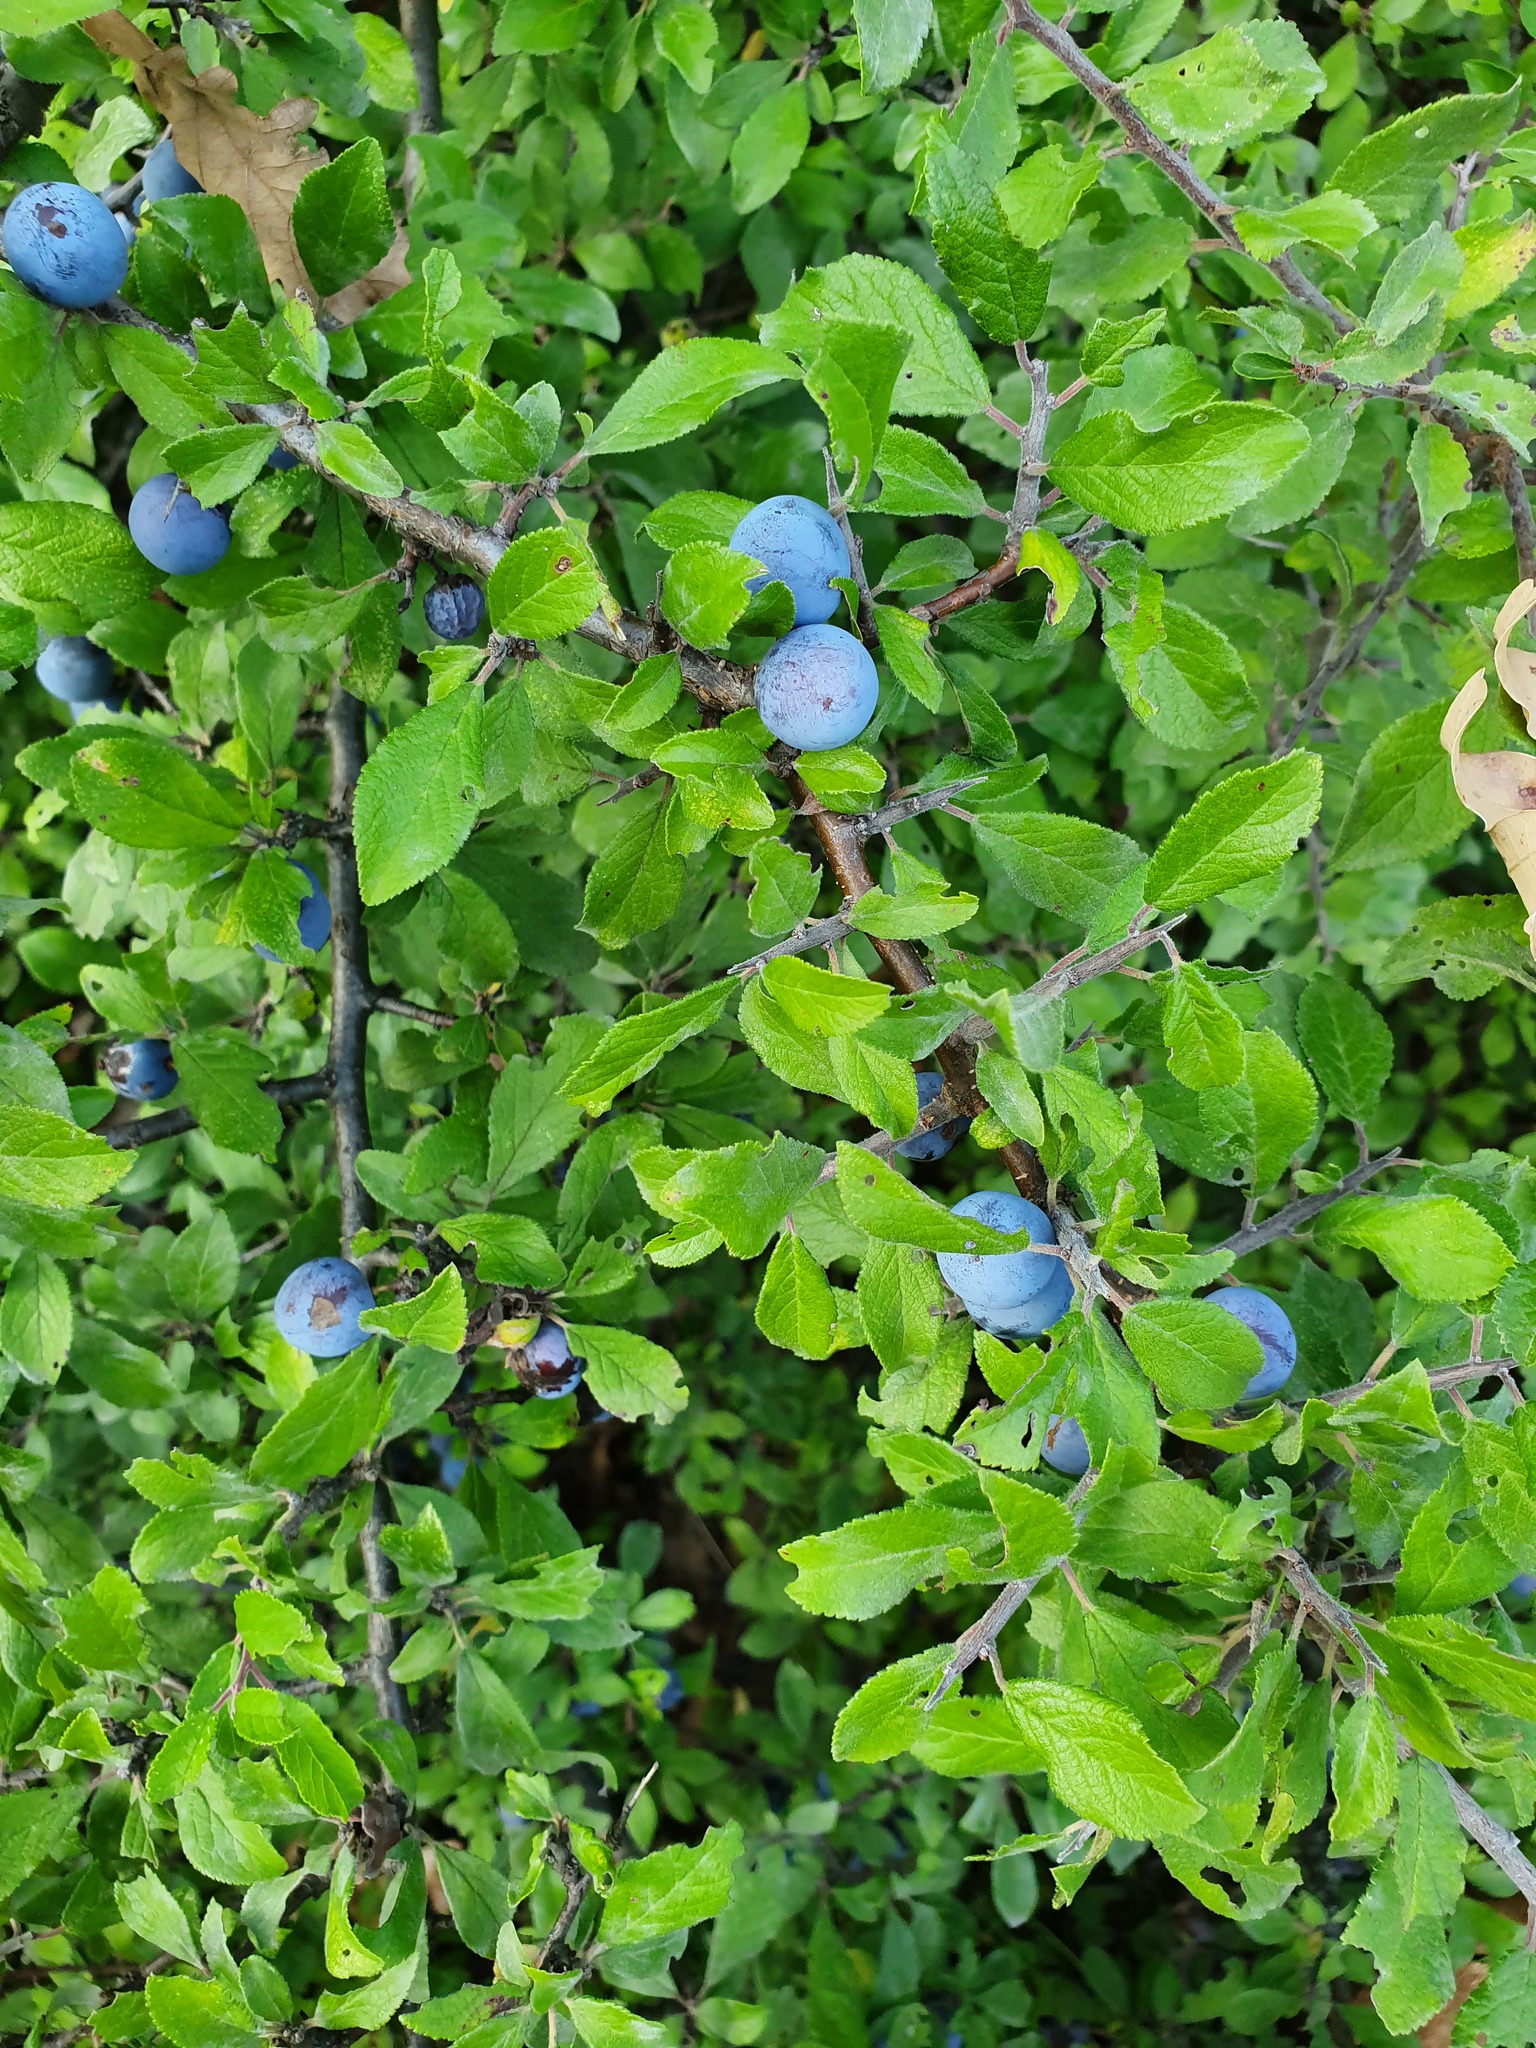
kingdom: Plantae
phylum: Tracheophyta
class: Magnoliopsida
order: Rosales
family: Rosaceae
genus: Prunus
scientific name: Prunus spinosa
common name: Blackthorn
